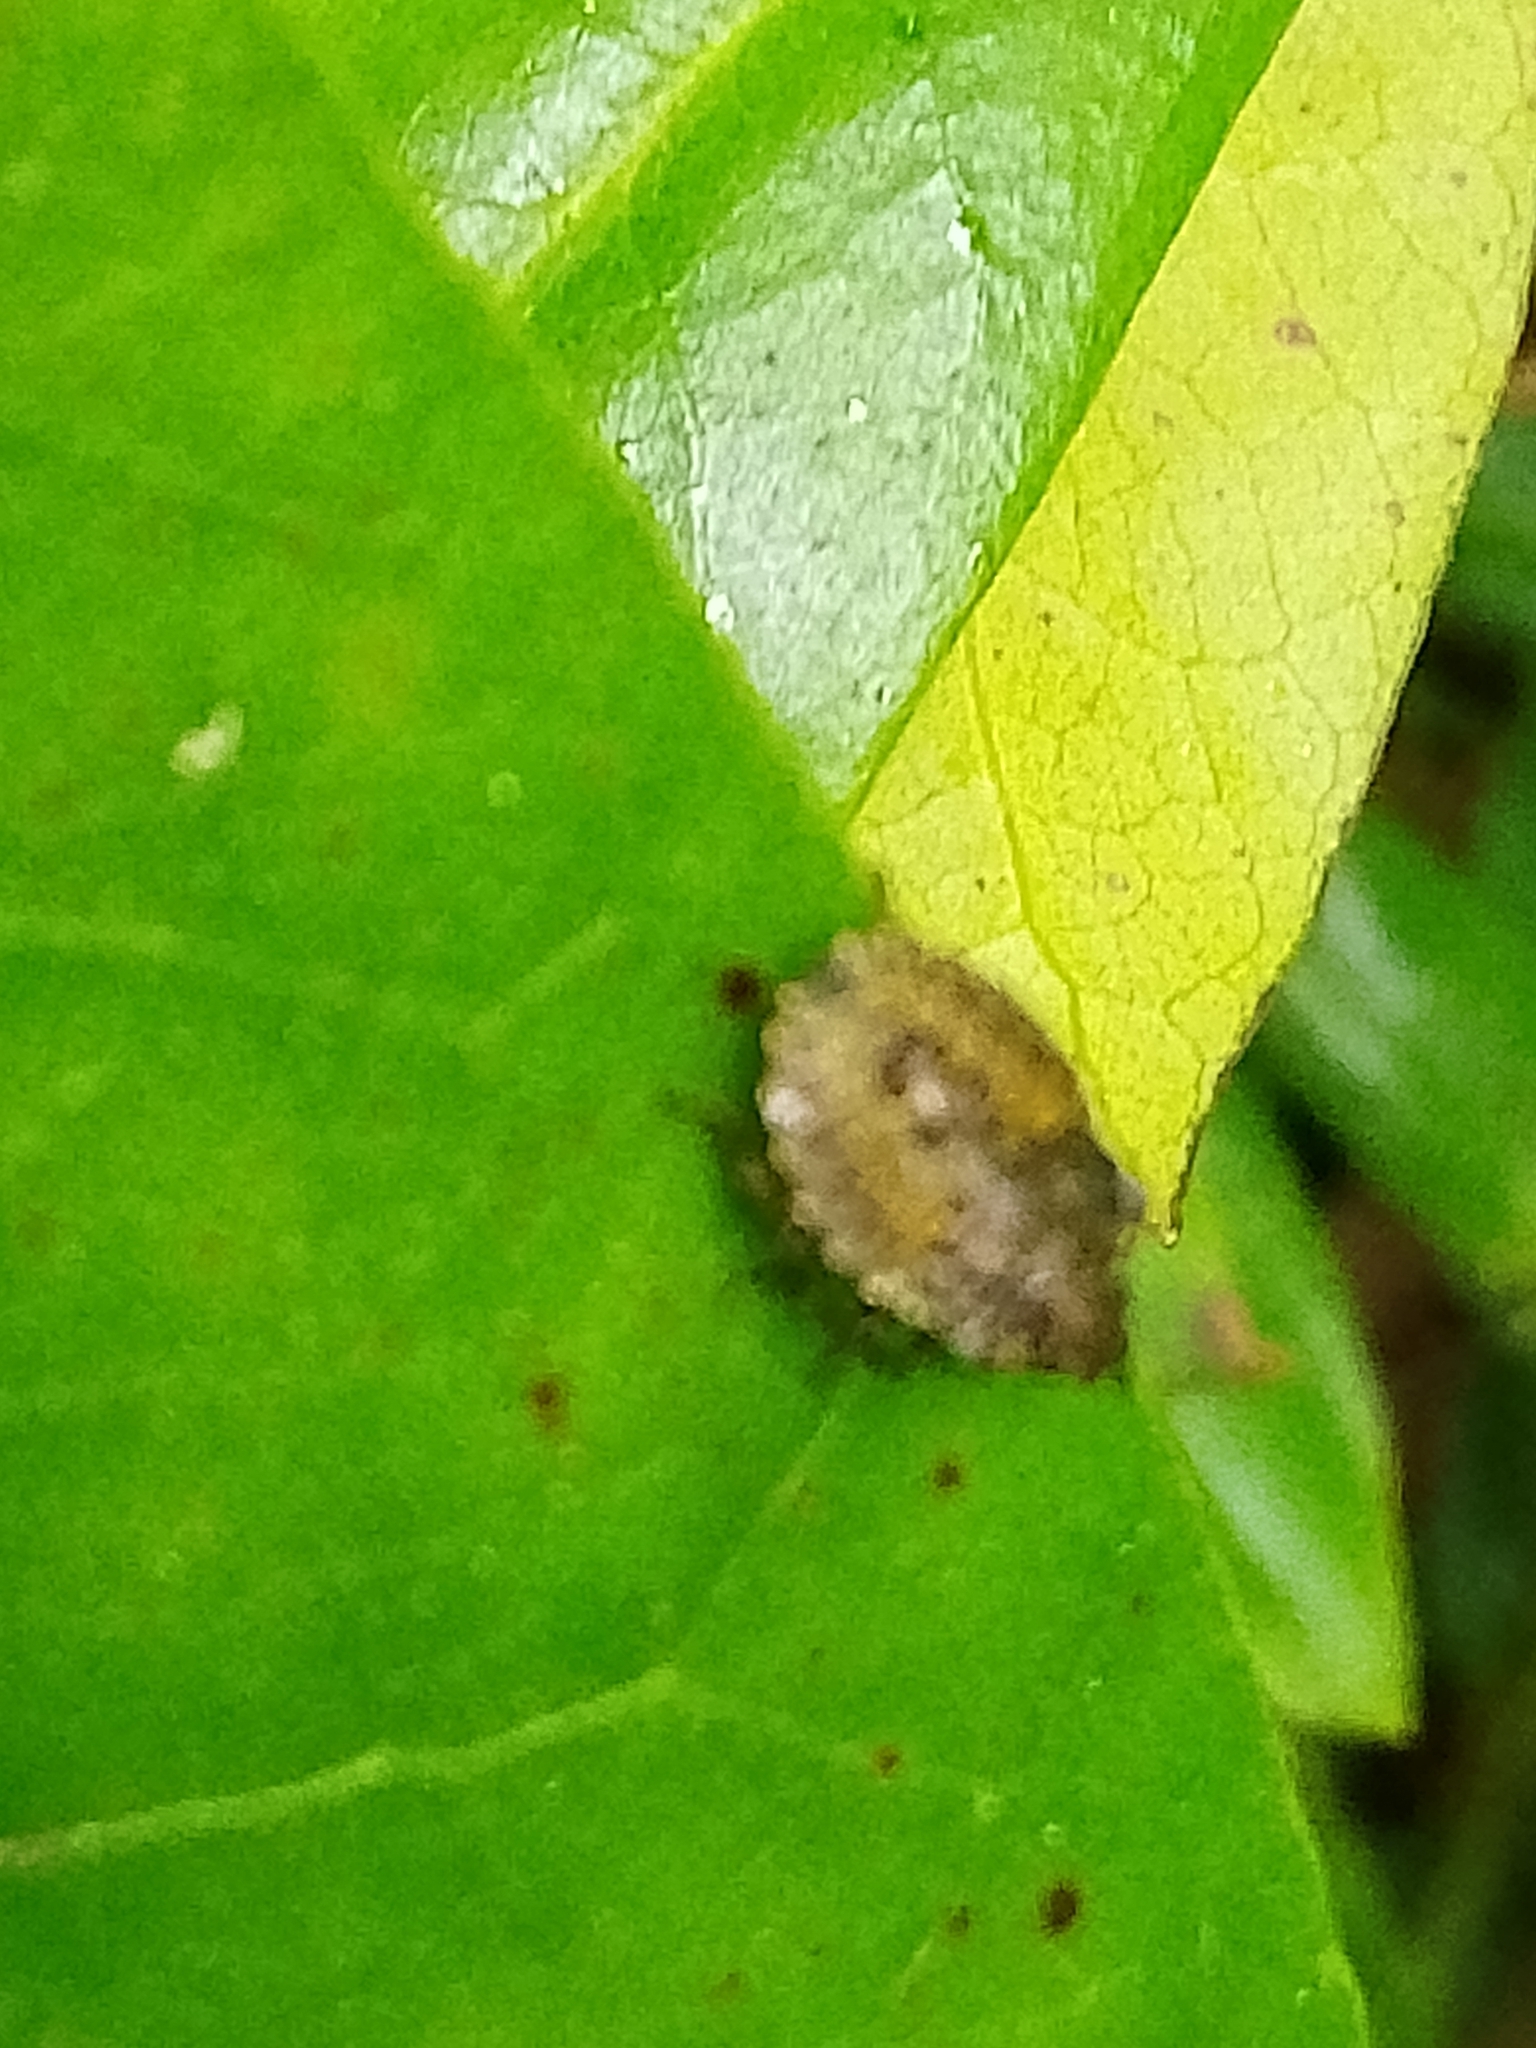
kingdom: Animalia
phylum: Arthropoda
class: Insecta
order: Hemiptera
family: Pentatomidae
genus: Pentatoma
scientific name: Pentatoma rufipes
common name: Forest bug
